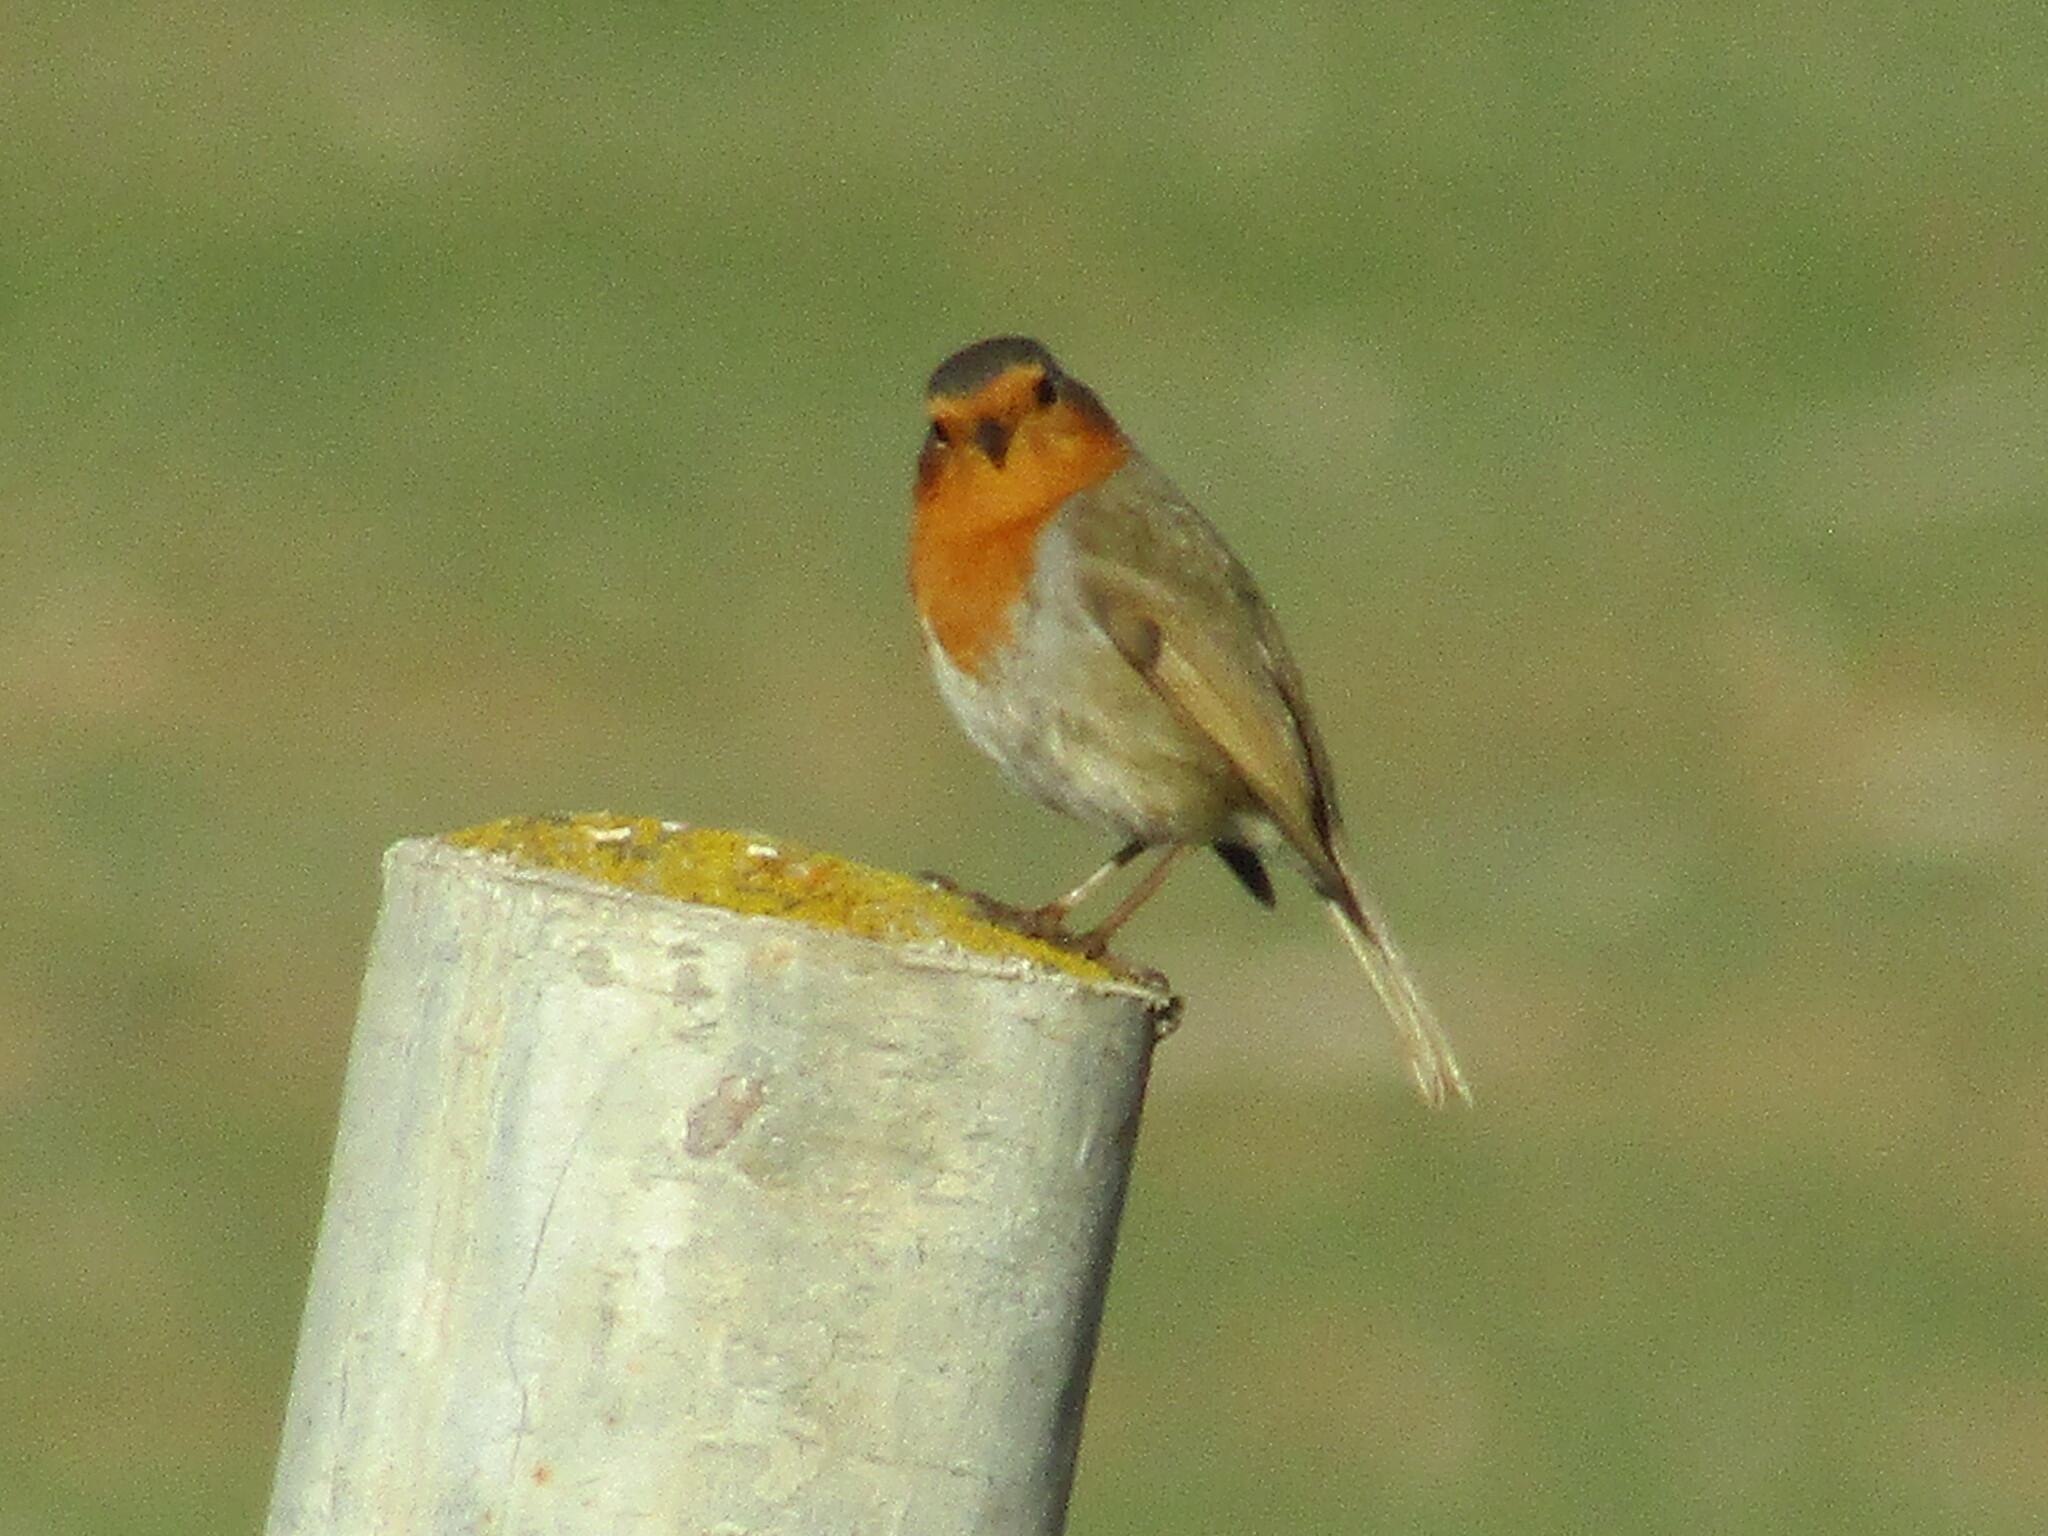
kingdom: Animalia
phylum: Chordata
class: Aves
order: Passeriformes
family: Muscicapidae
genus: Erithacus
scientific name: Erithacus rubecula
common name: European robin
